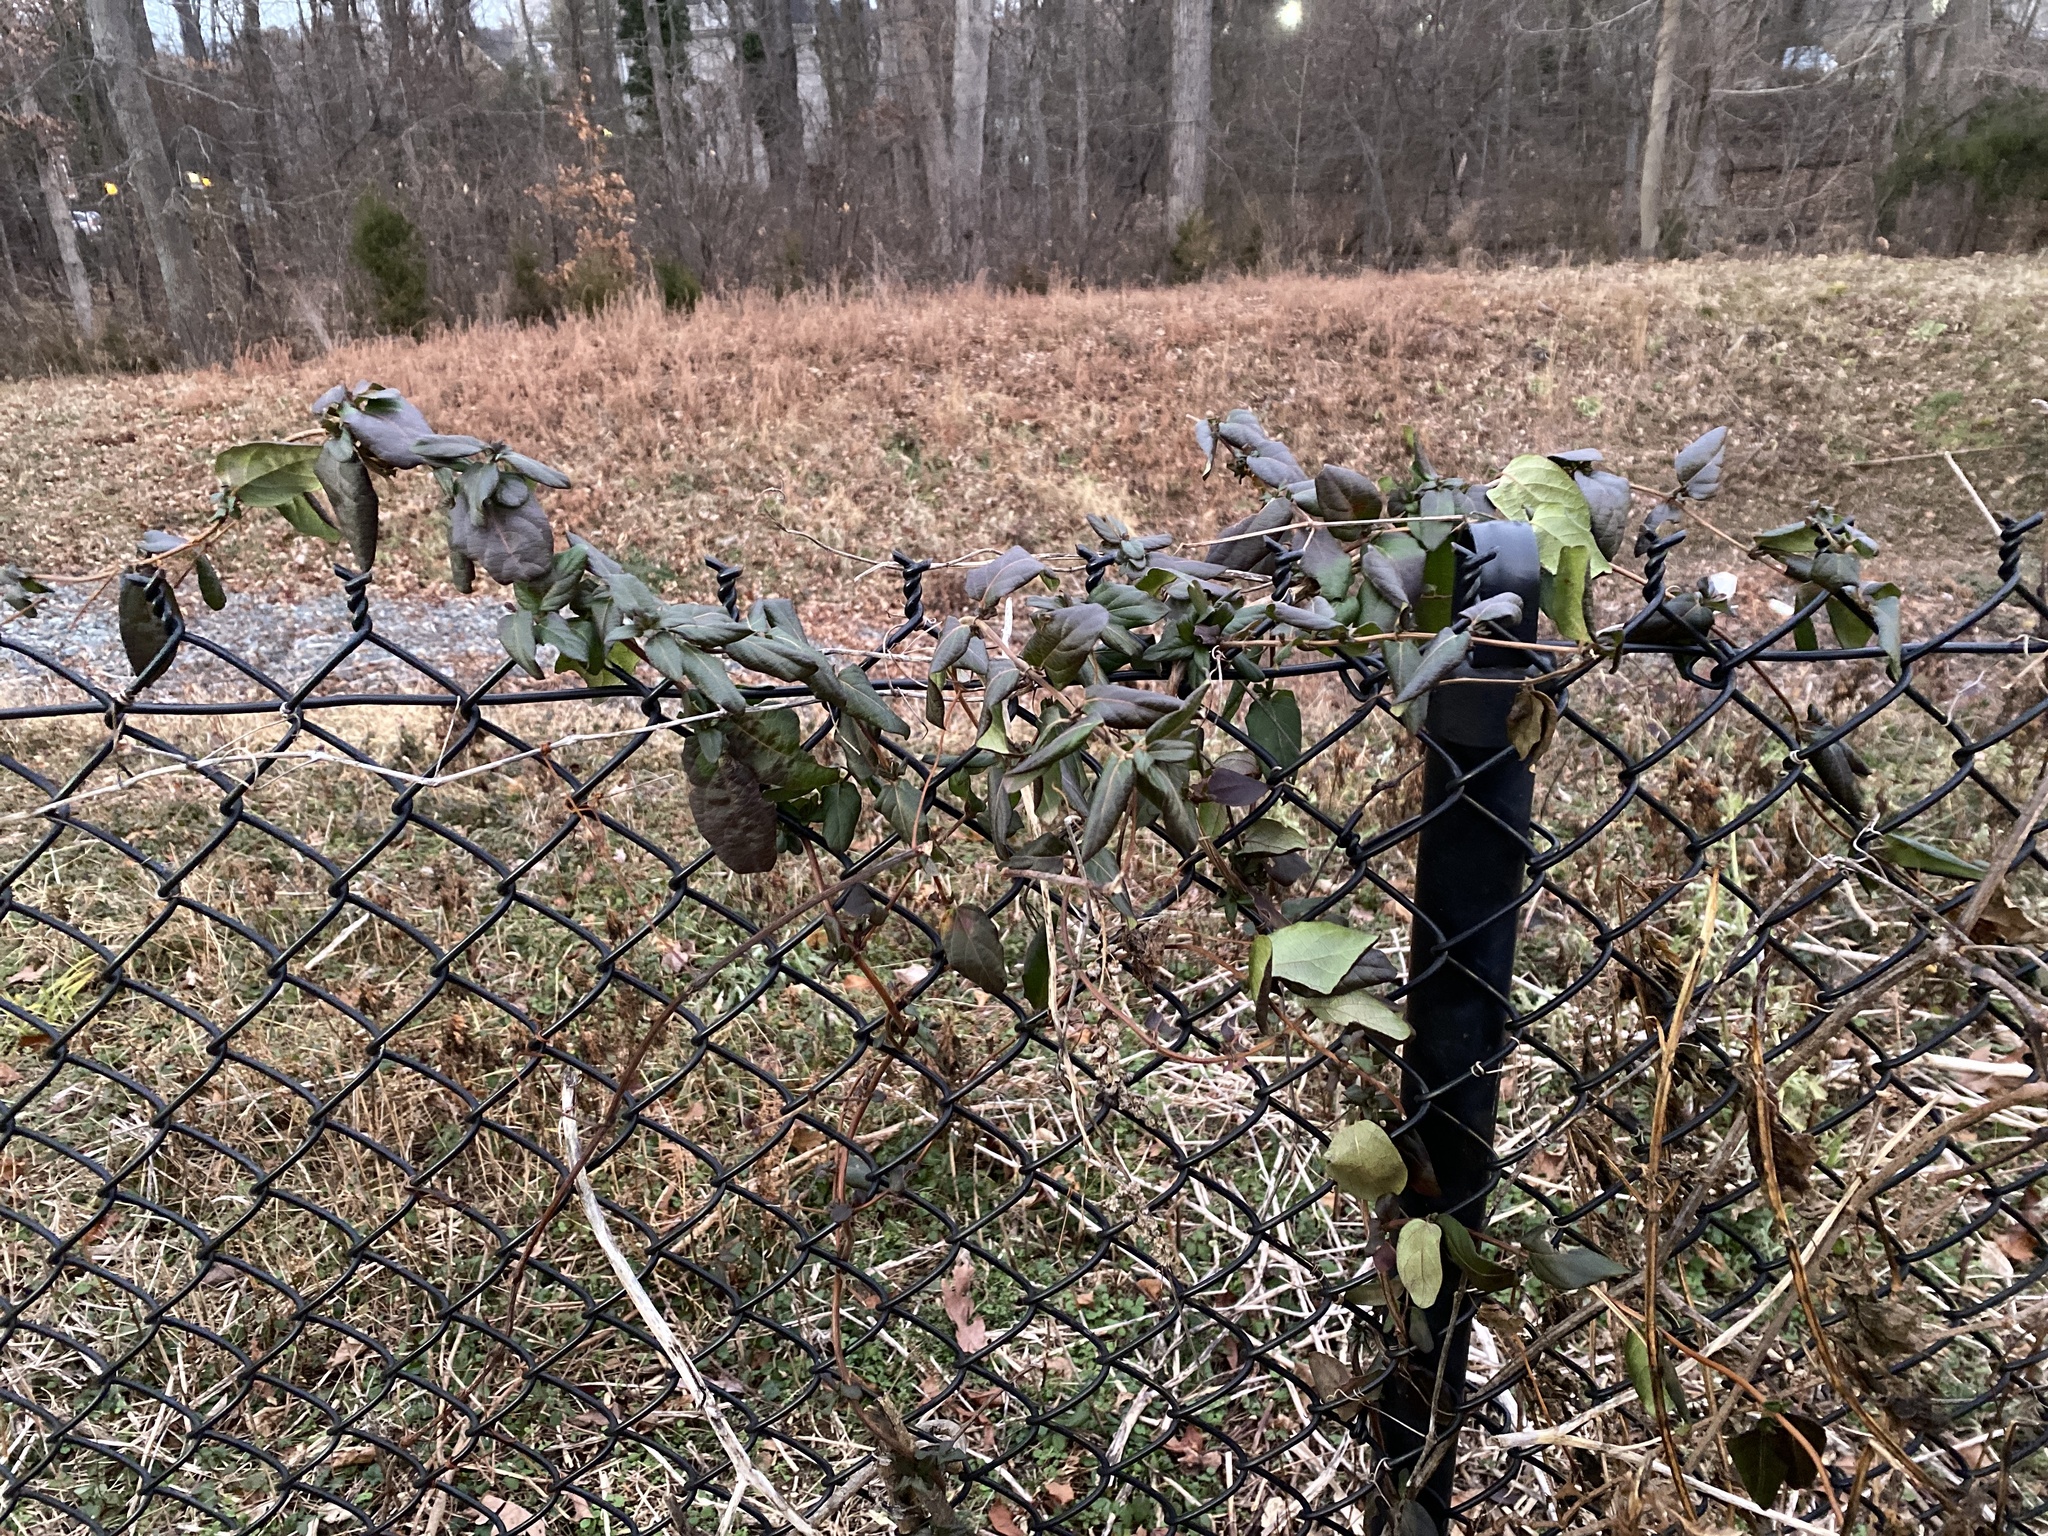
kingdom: Plantae
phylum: Tracheophyta
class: Magnoliopsida
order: Dipsacales
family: Caprifoliaceae
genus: Lonicera
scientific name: Lonicera japonica
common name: Japanese honeysuckle
